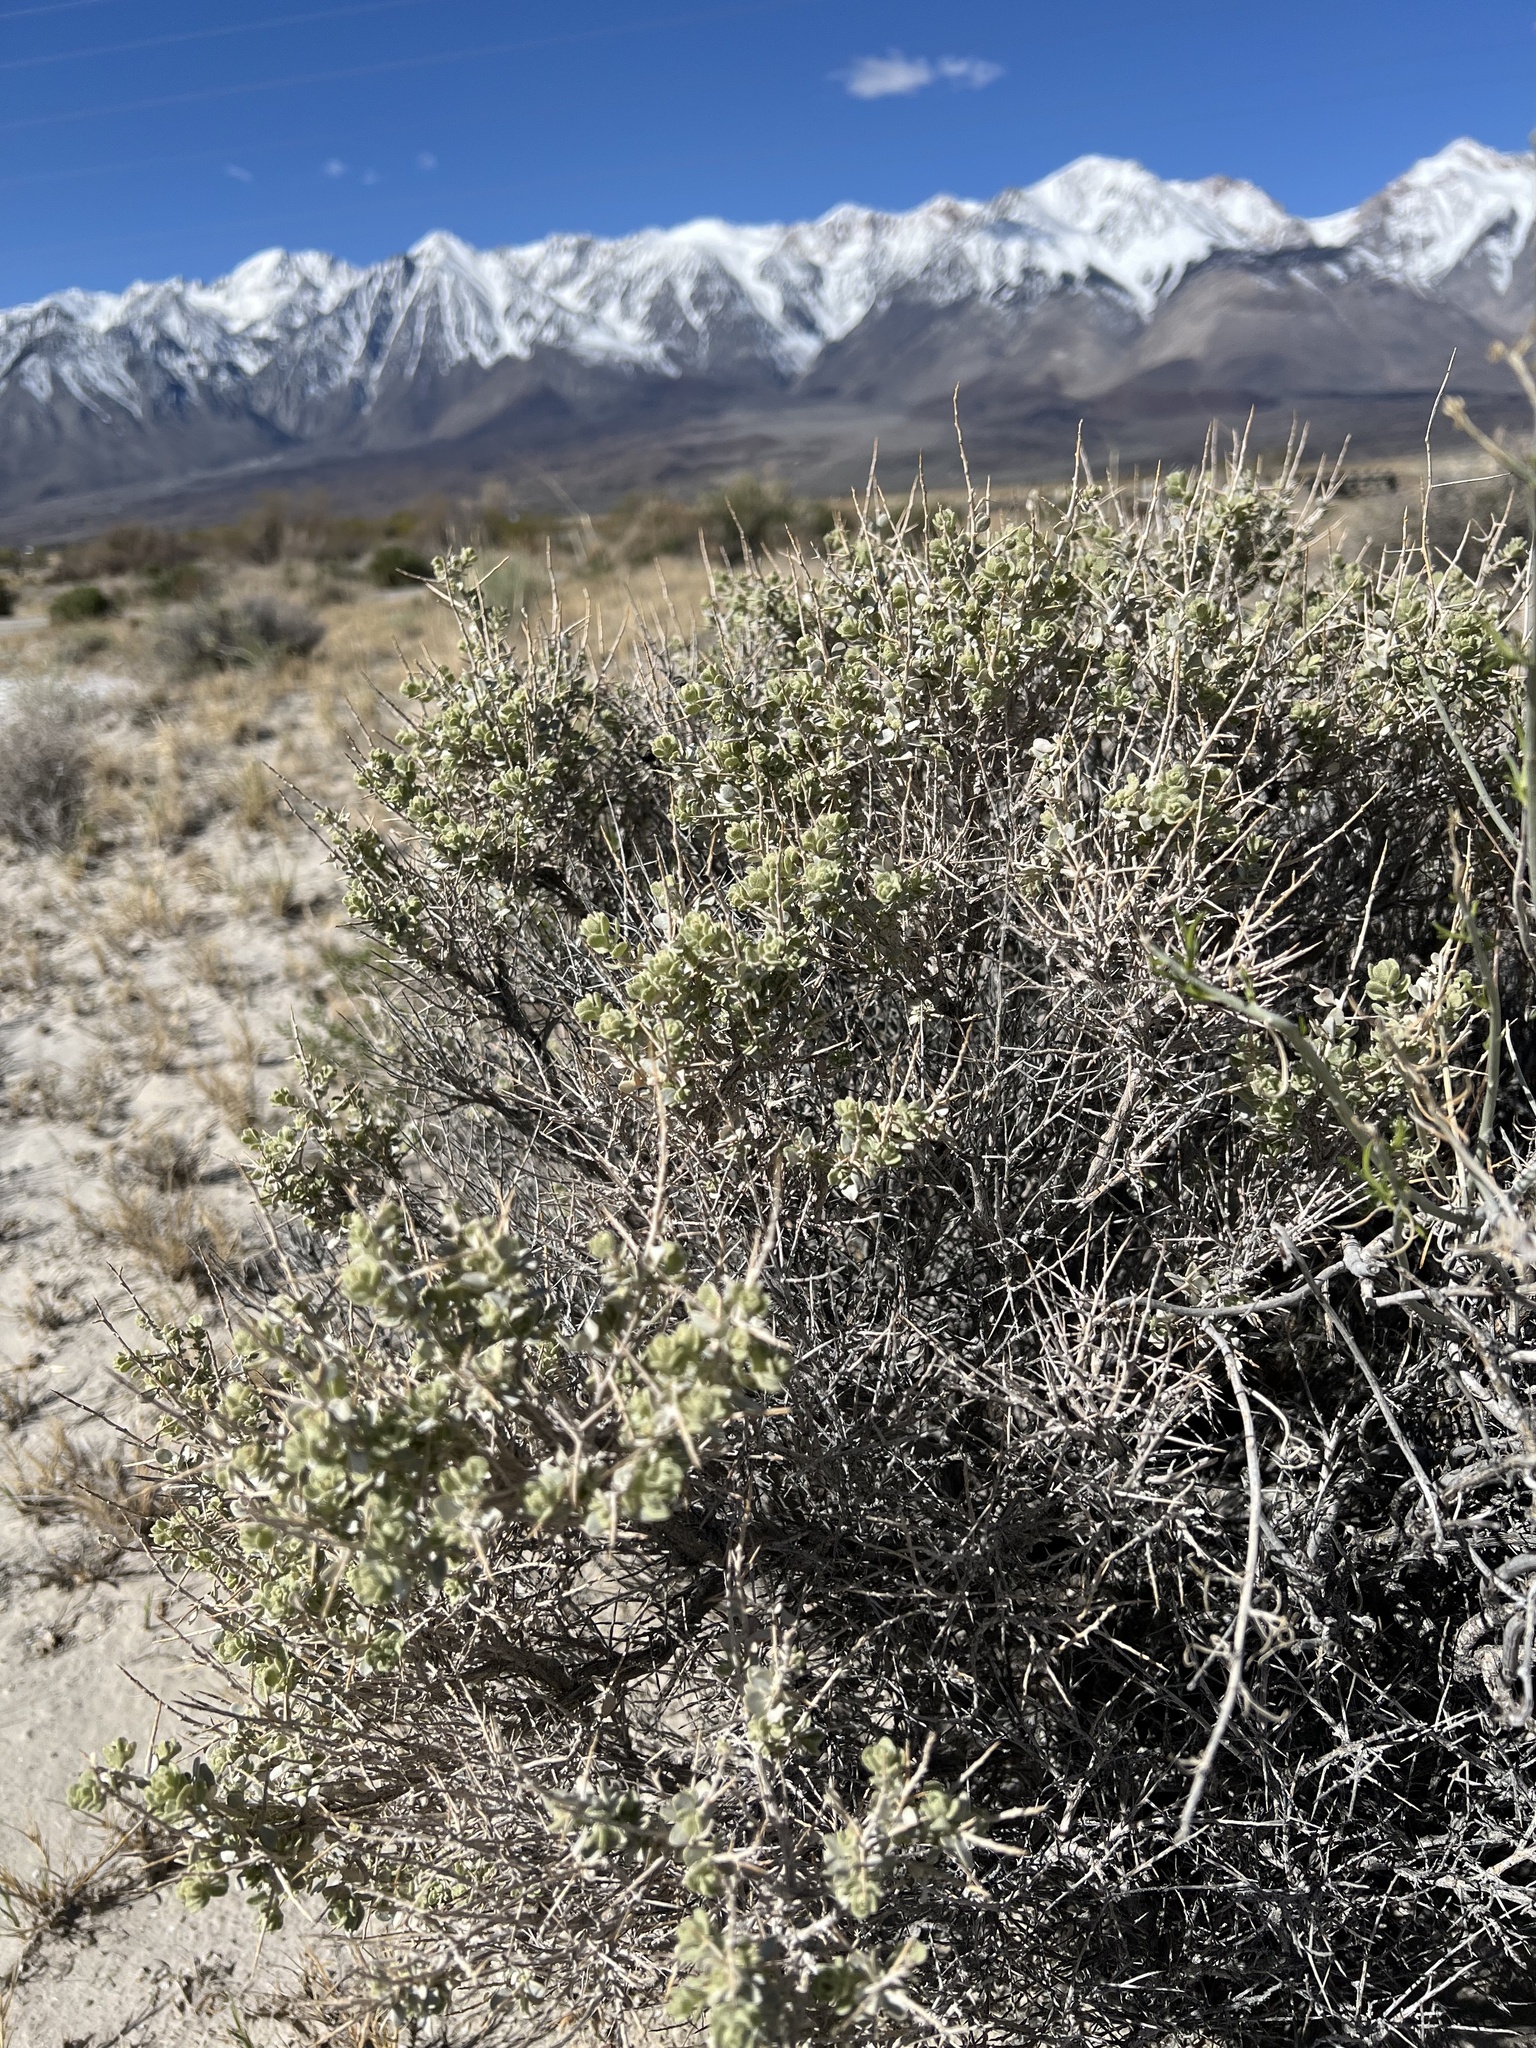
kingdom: Plantae
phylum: Tracheophyta
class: Magnoliopsida
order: Caryophyllales
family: Amaranthaceae
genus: Atriplex
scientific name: Atriplex confertifolia
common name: Shadscale
